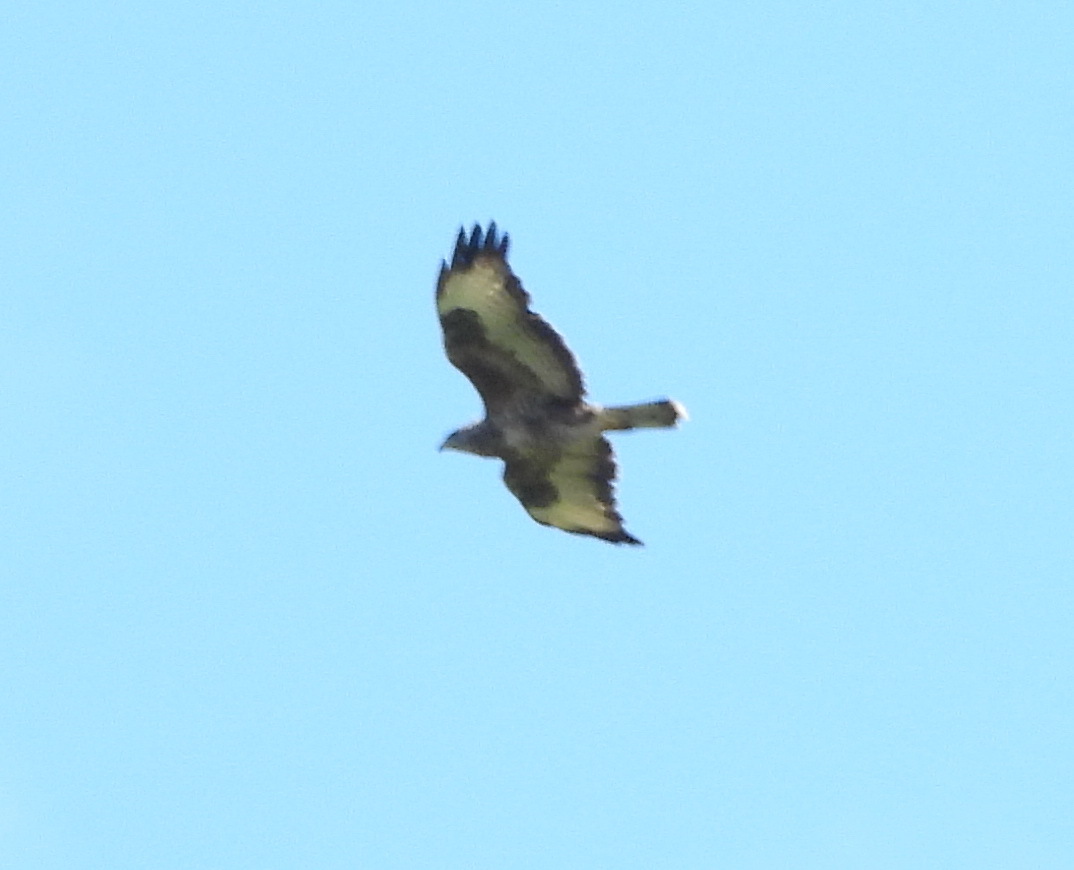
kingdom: Animalia
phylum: Chordata
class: Aves
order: Accipitriformes
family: Accipitridae
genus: Buteo
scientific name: Buteo buteo
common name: Common buzzard
